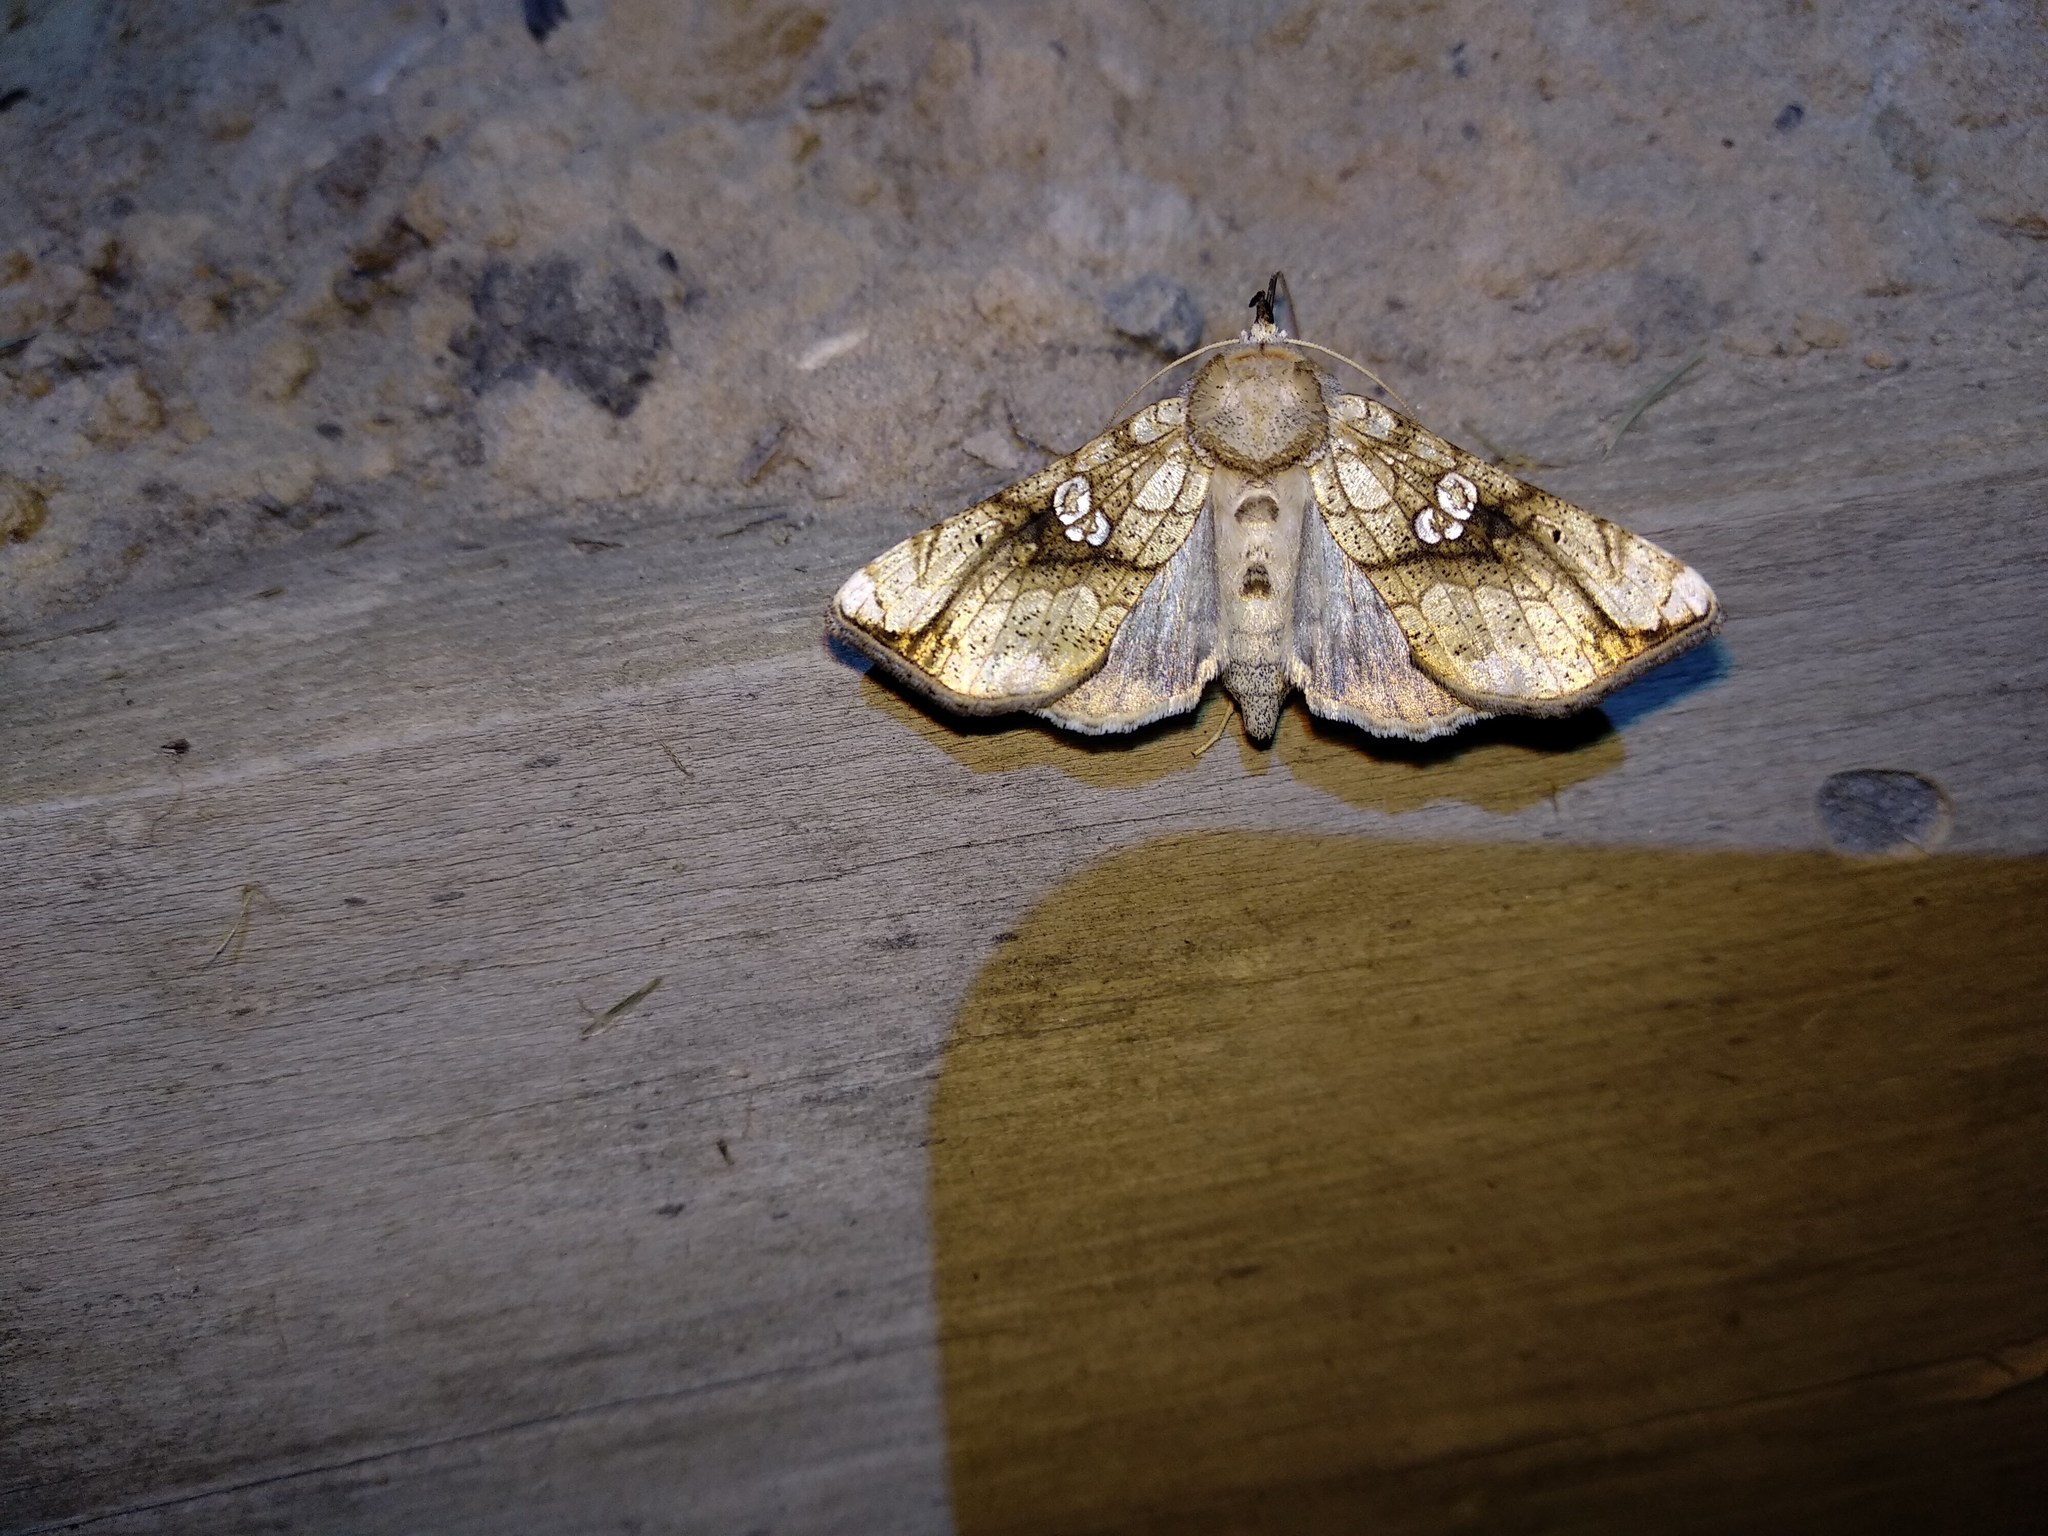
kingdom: Animalia
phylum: Arthropoda
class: Insecta
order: Lepidoptera
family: Noctuidae
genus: Polychrysia
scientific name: Polychrysia esmeralda
